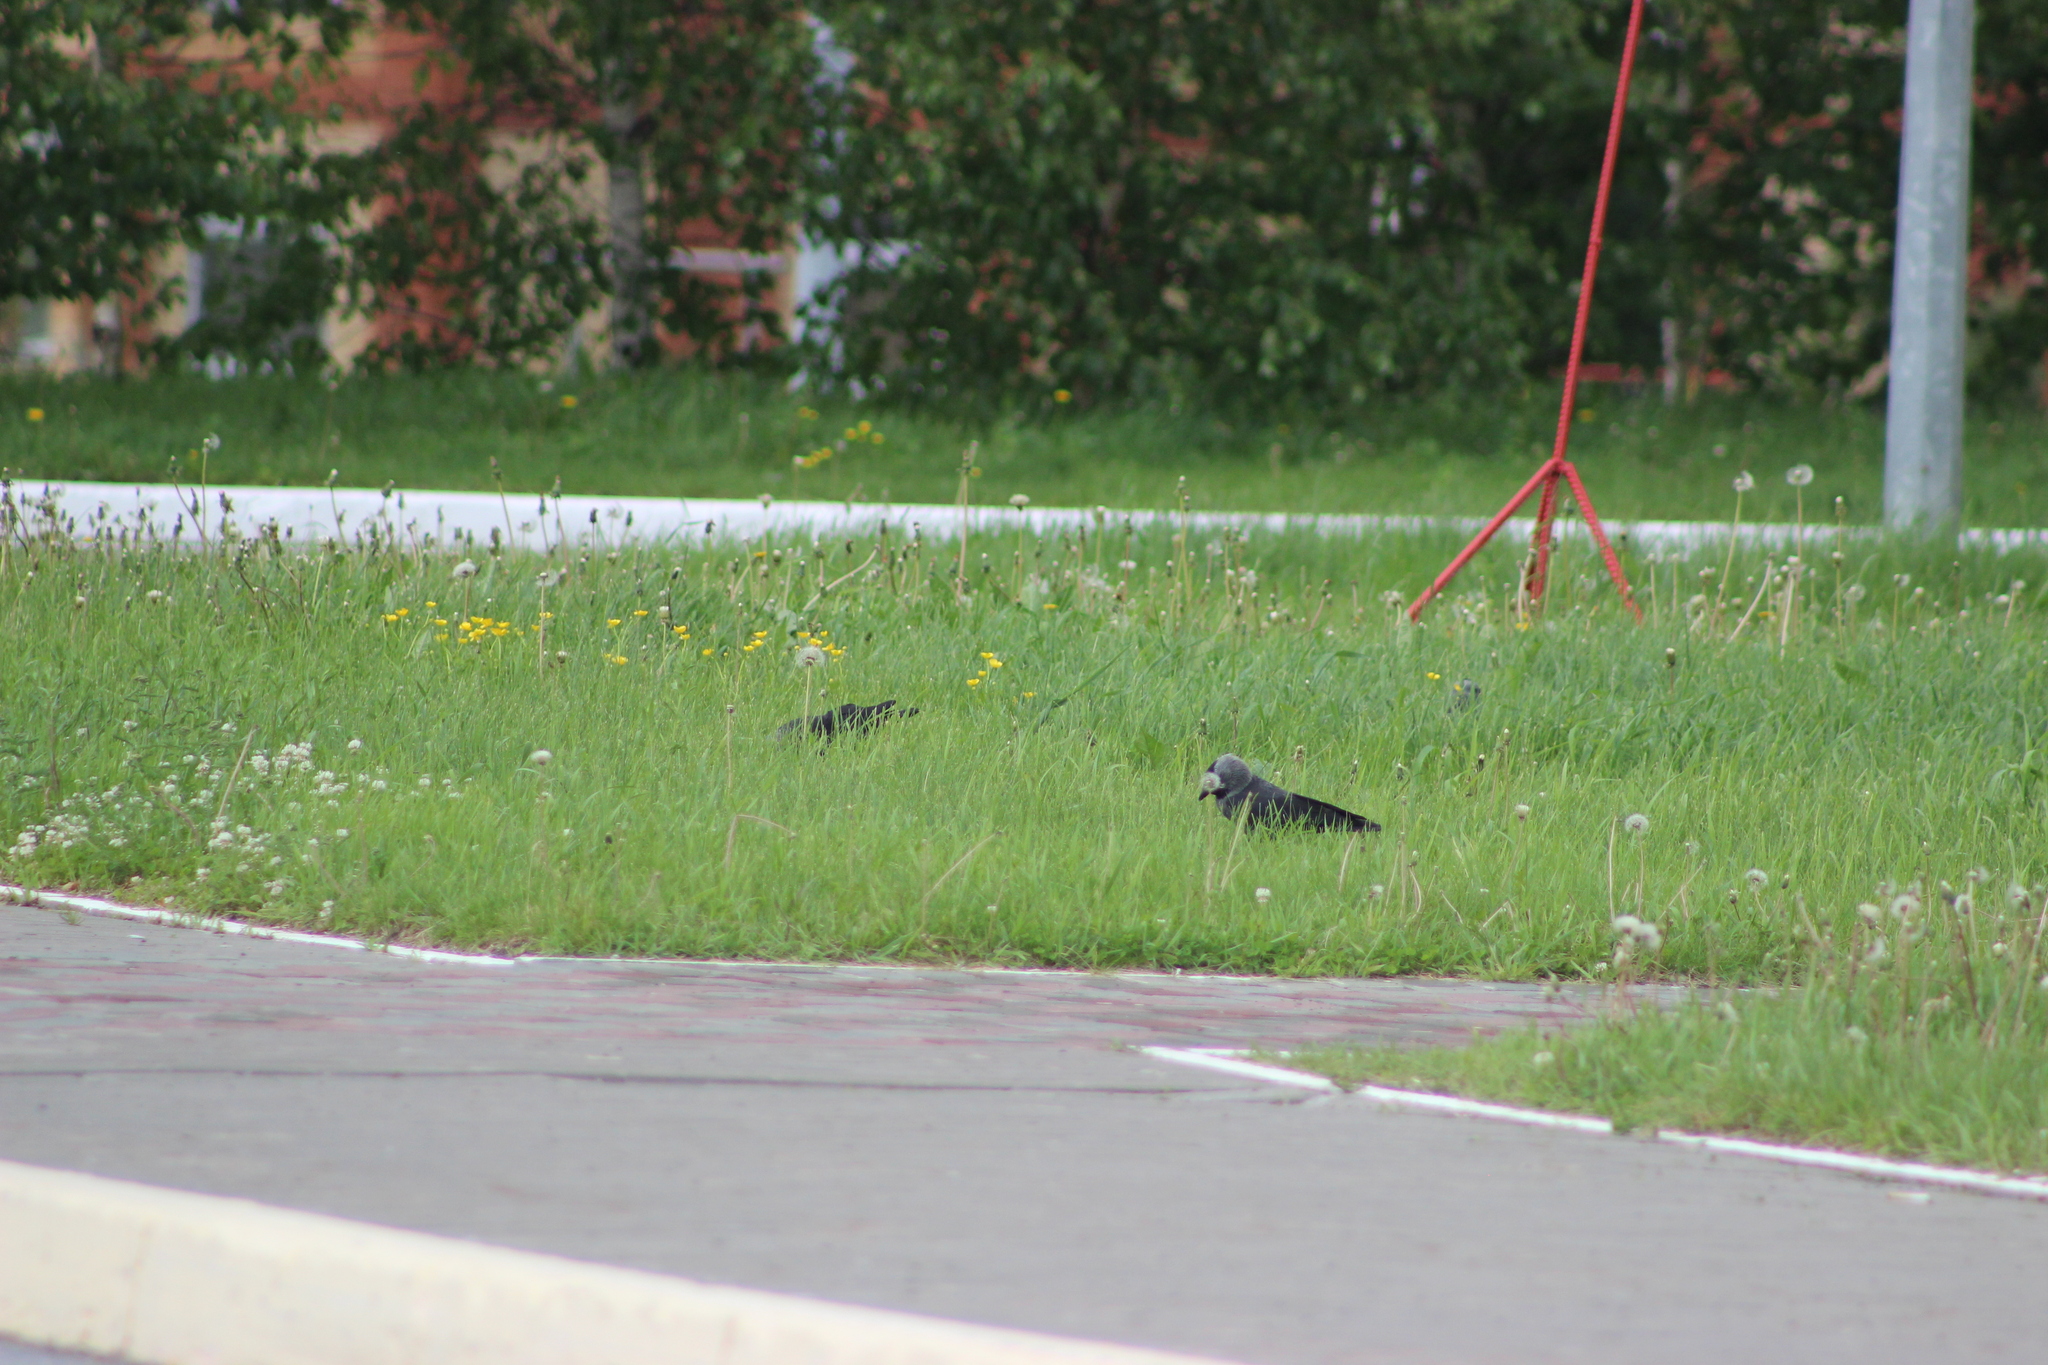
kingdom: Animalia
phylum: Chordata
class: Aves
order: Passeriformes
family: Corvidae
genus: Coloeus
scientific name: Coloeus monedula
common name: Western jackdaw
